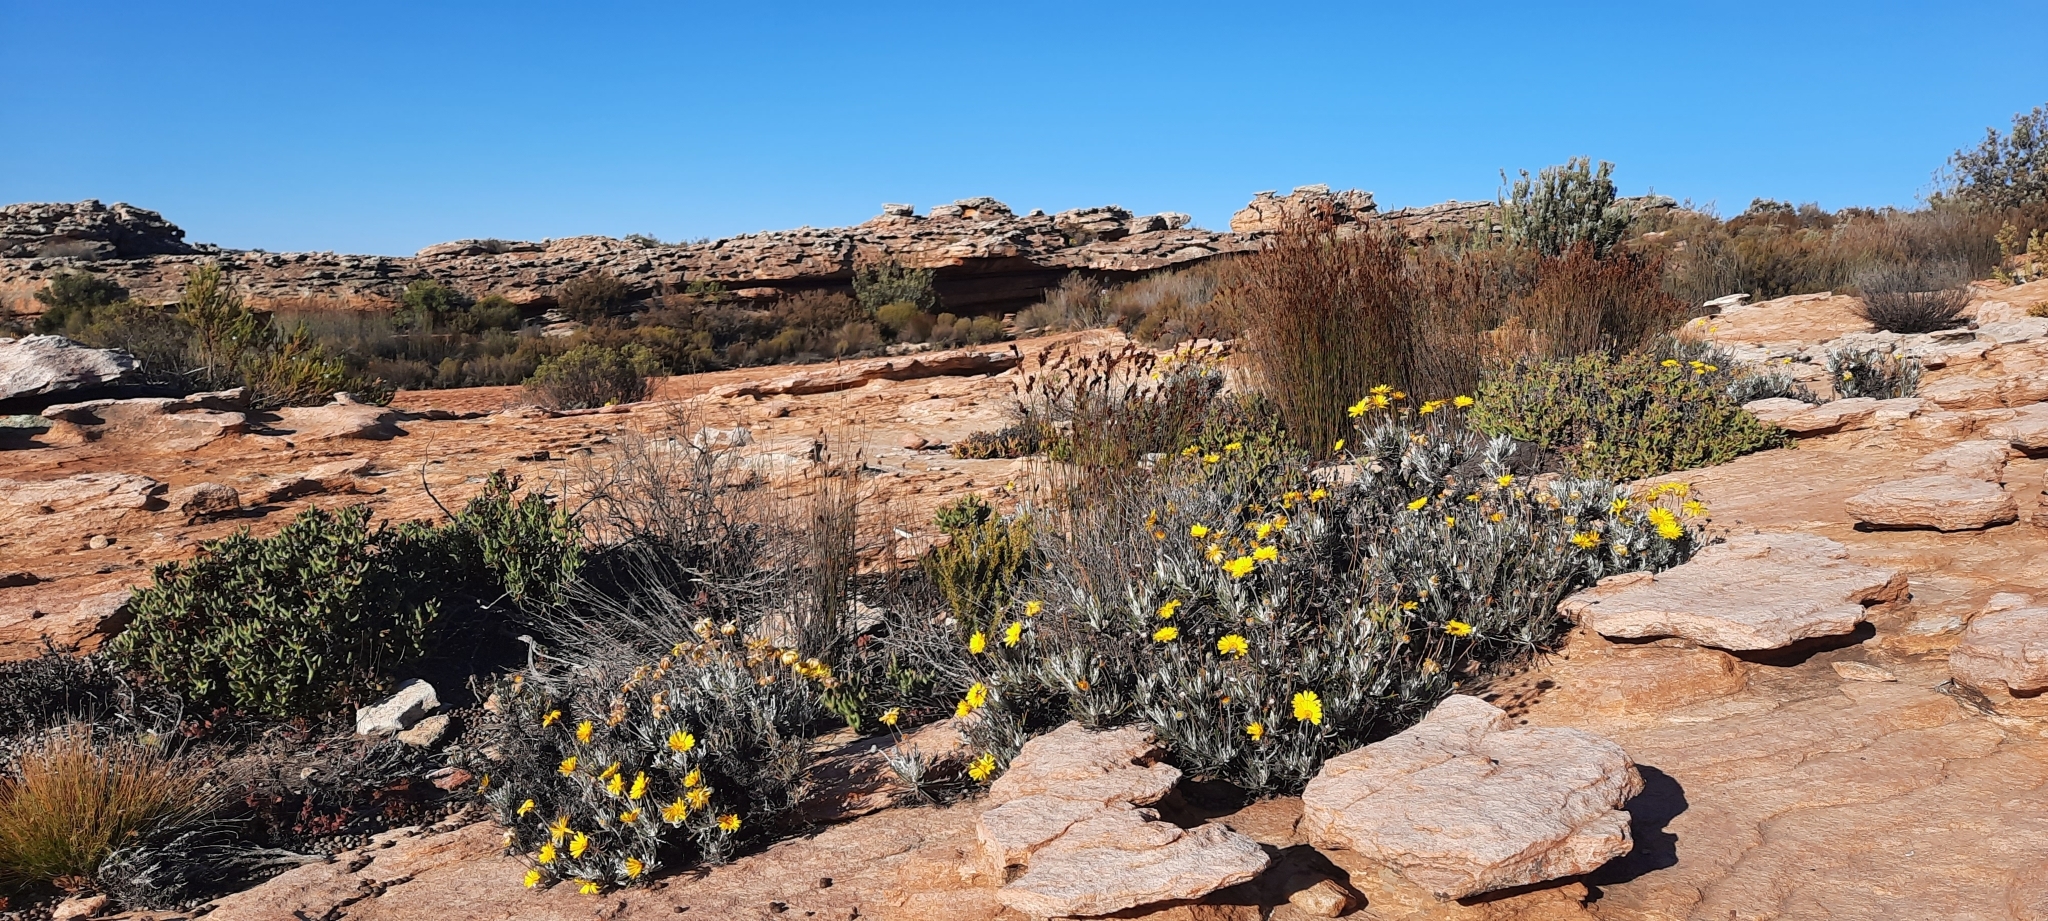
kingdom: Plantae
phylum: Tracheophyta
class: Magnoliopsida
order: Asterales
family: Asteraceae
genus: Euryops
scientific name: Euryops othonnoides
